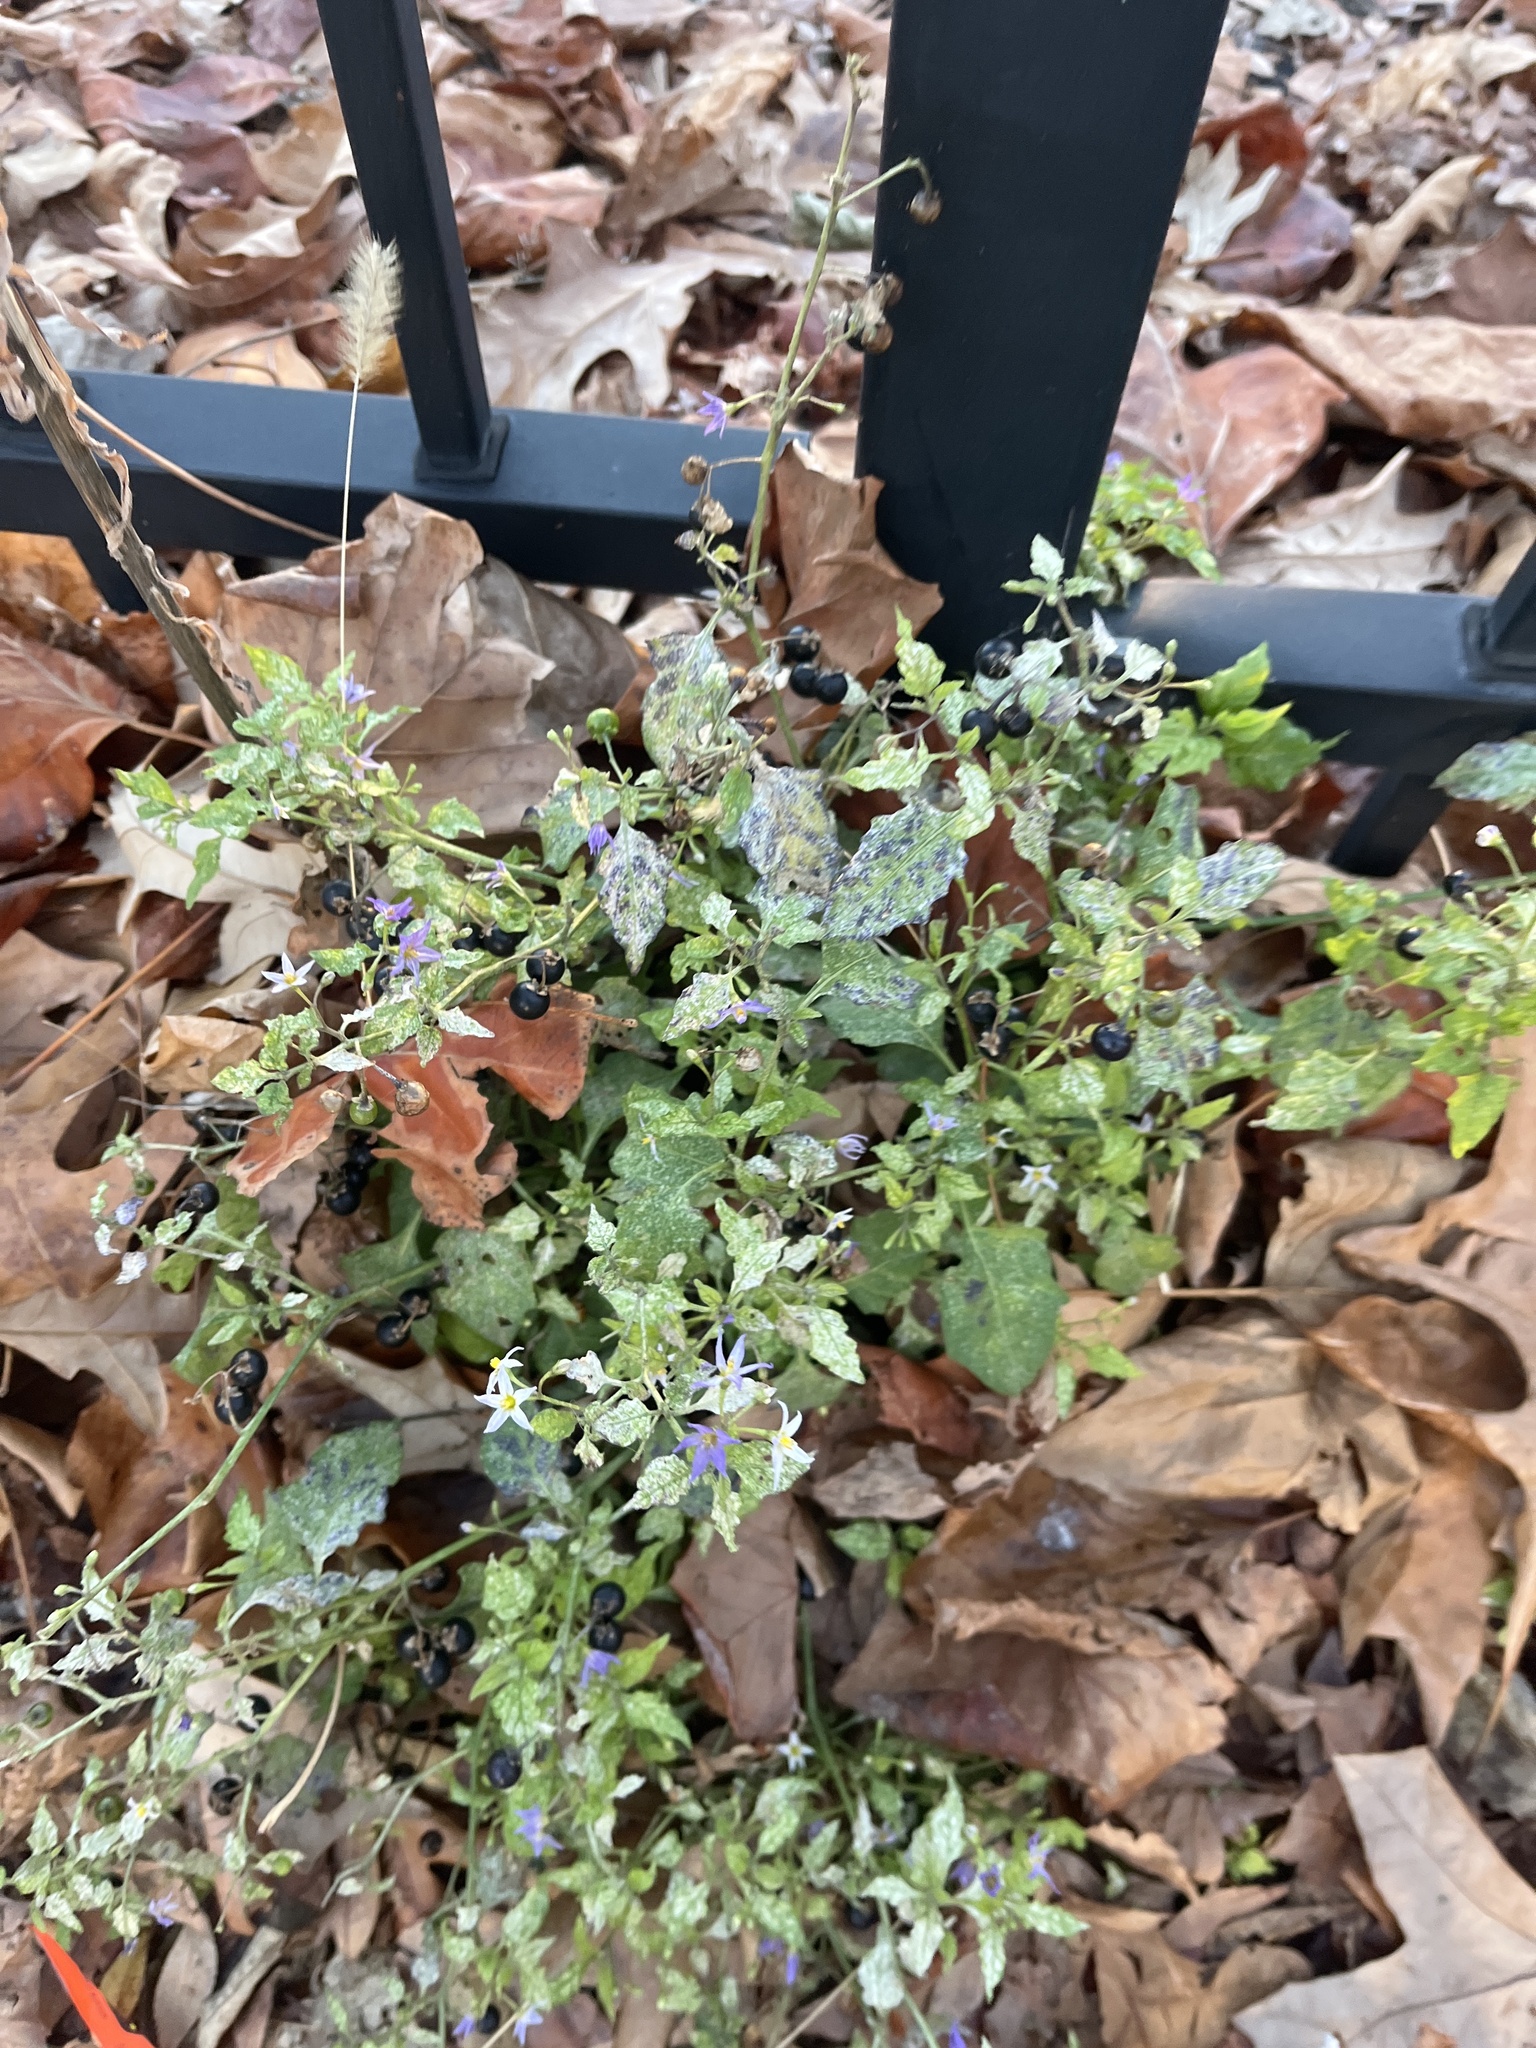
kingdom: Plantae
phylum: Tracheophyta
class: Magnoliopsida
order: Solanales
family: Solanaceae
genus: Solanum
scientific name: Solanum emulans
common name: Eastern black nightshade
